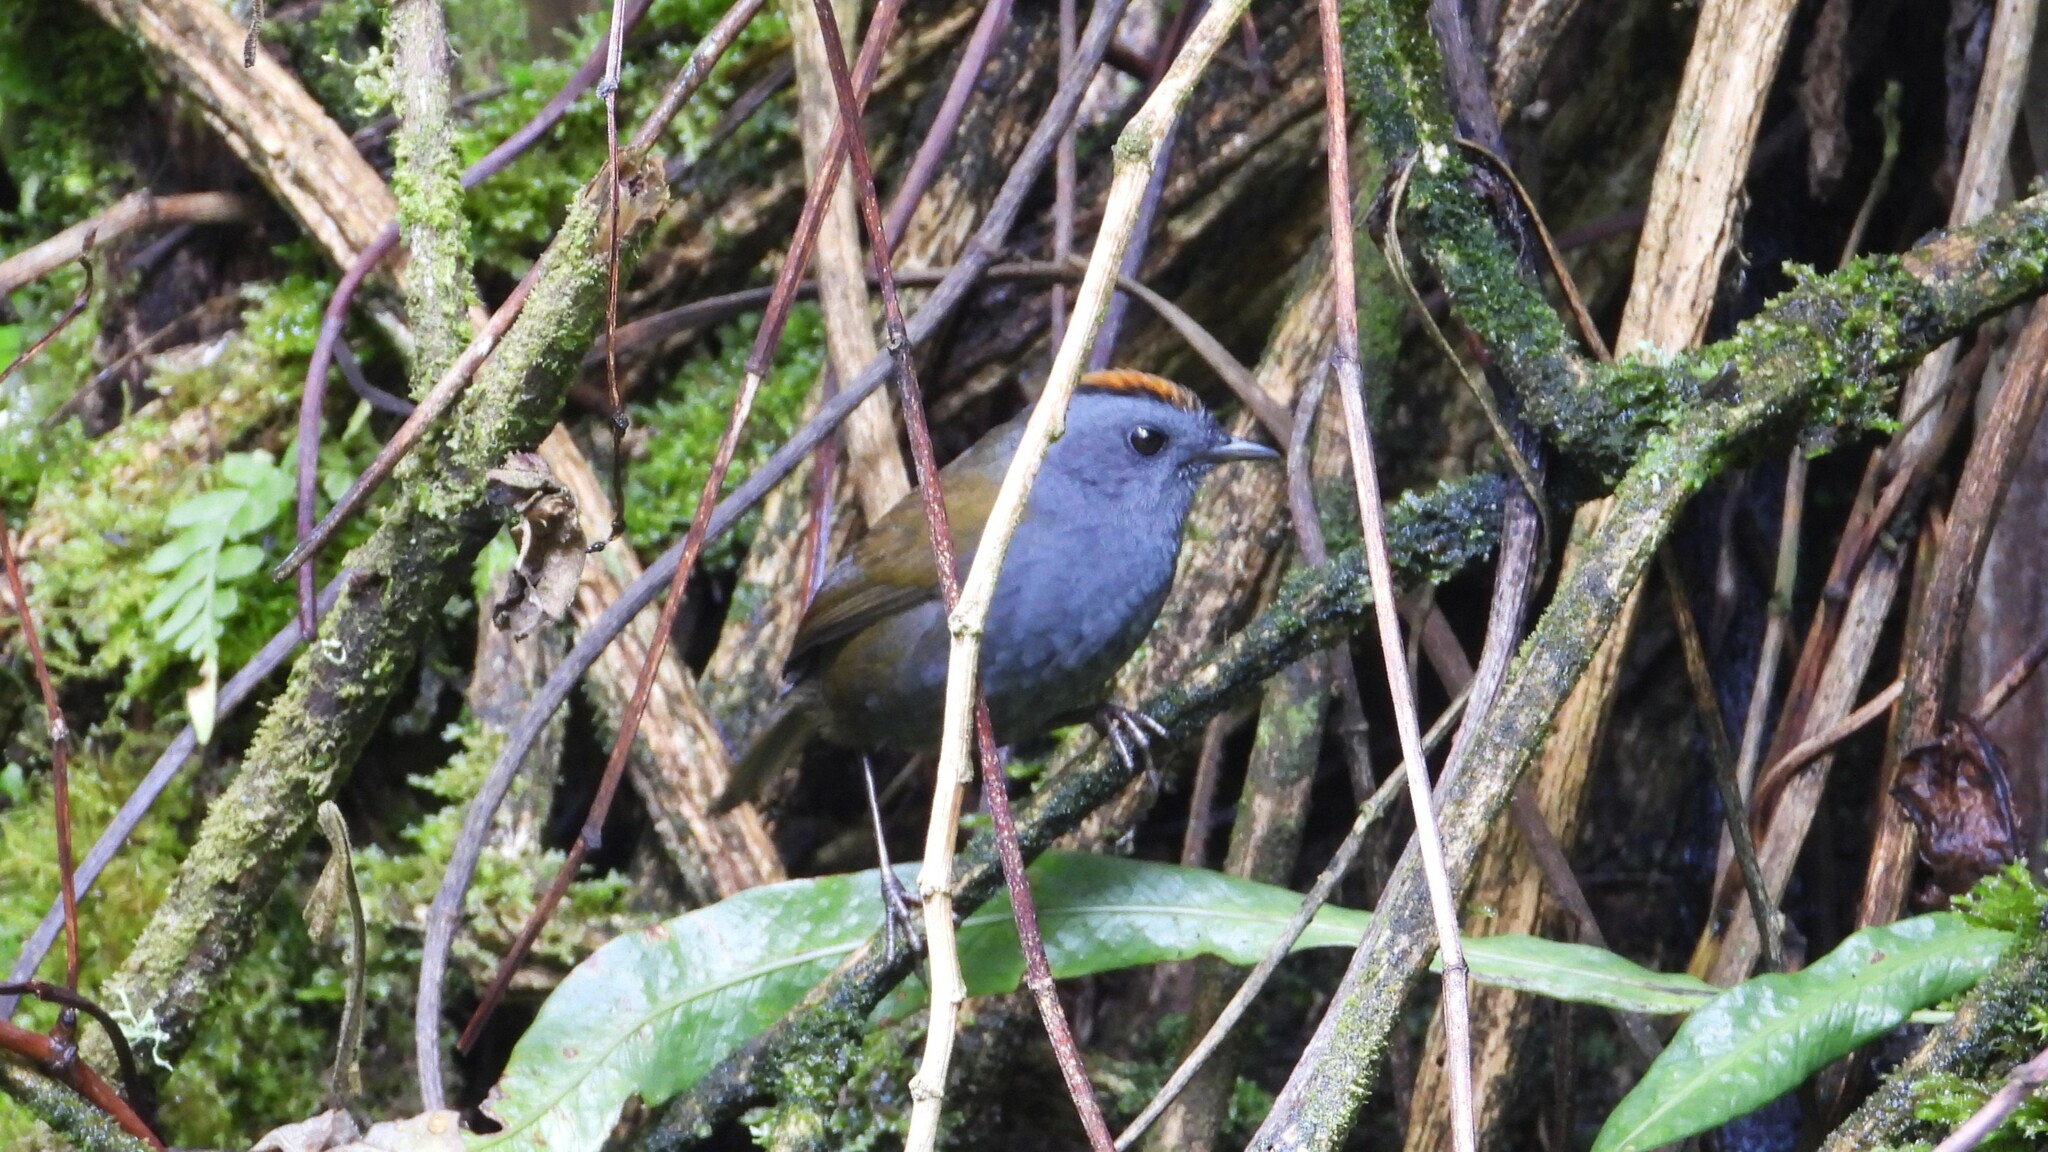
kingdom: Animalia
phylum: Chordata
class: Aves
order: Passeriformes
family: Parulidae
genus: Zeledonia
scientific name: Zeledonia coronata
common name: Wrenthrush
